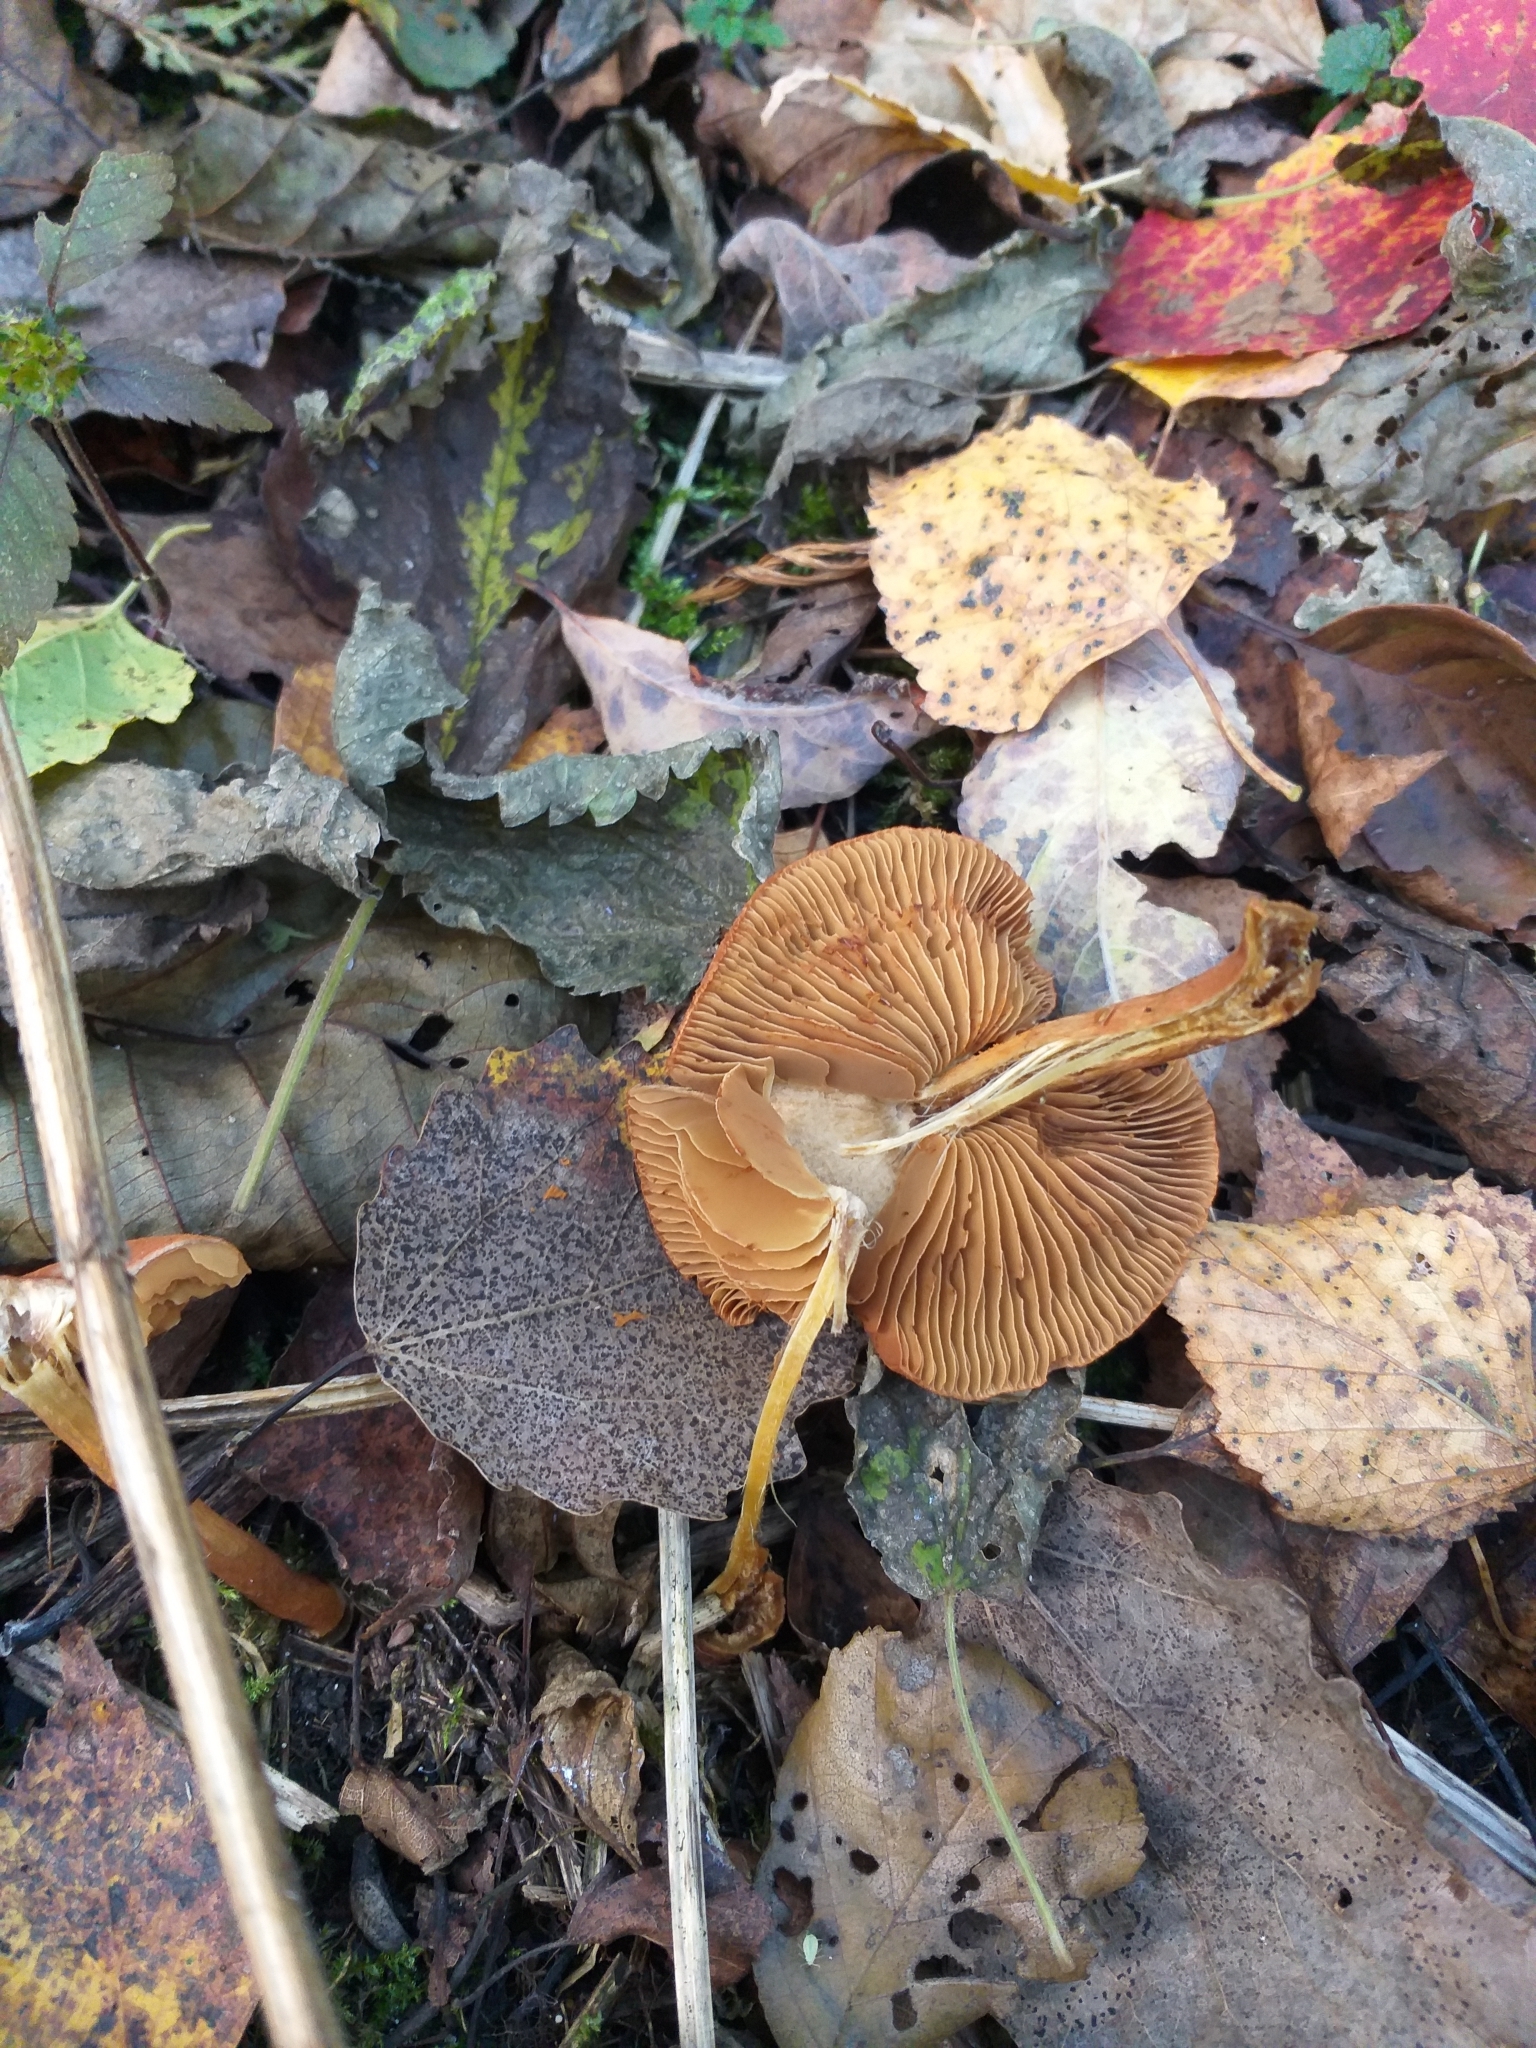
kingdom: Fungi
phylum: Basidiomycota
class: Agaricomycetes
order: Agaricales
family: Cortinariaceae
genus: Cortinarius
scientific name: Cortinarius uliginosus
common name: Marsh webcap
